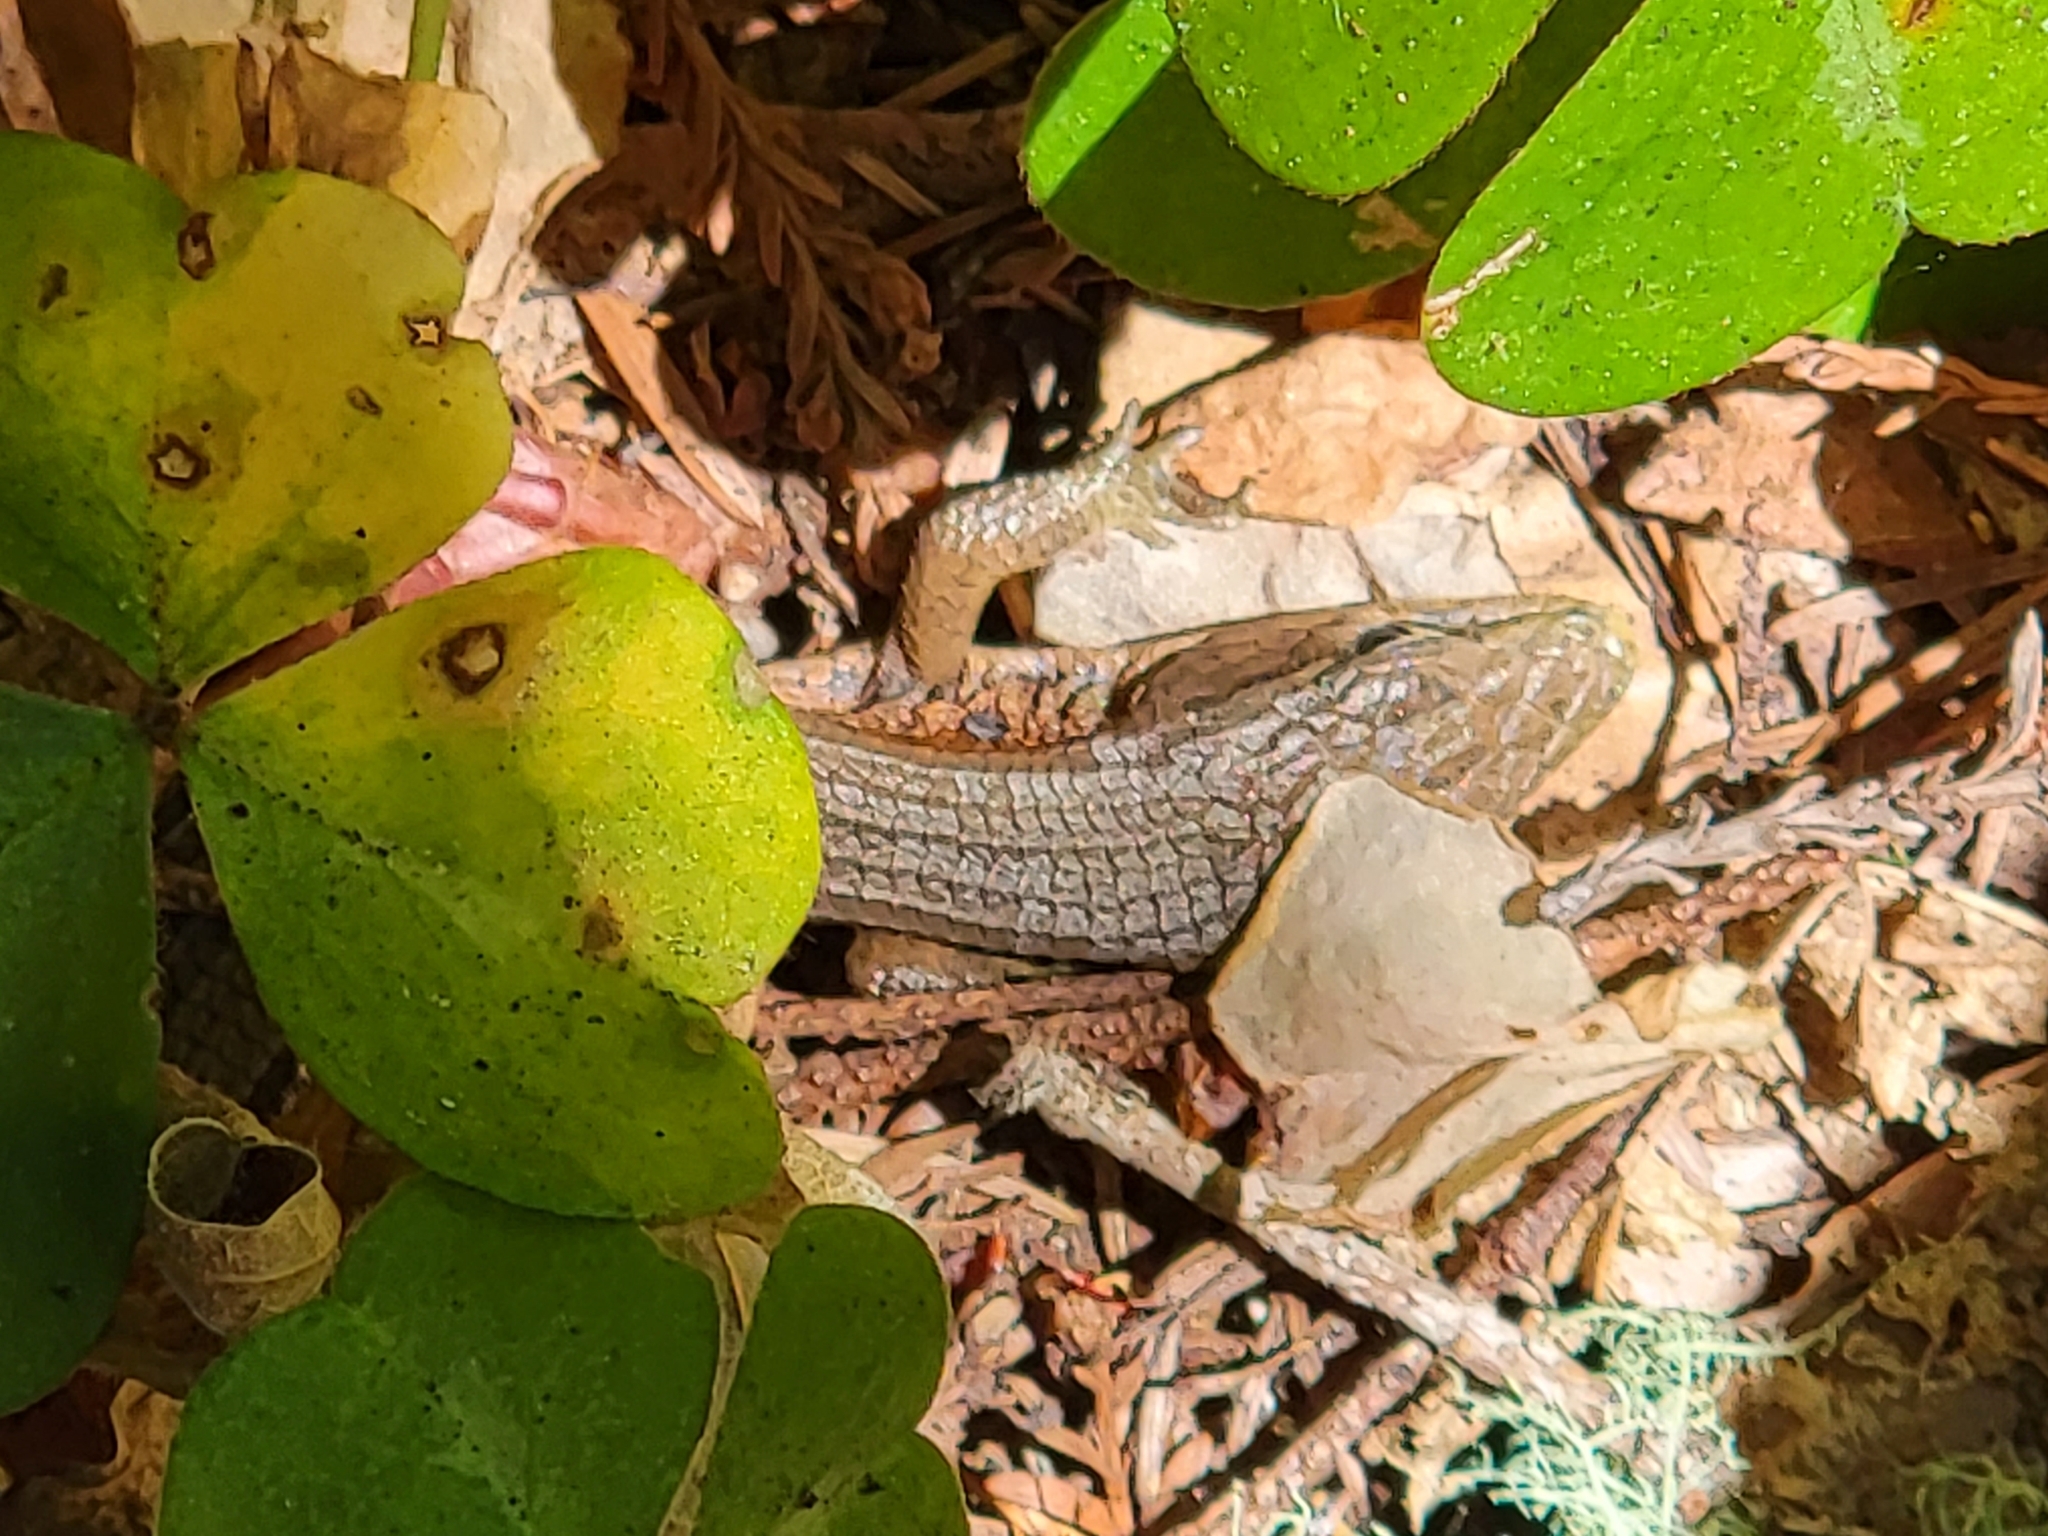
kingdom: Animalia
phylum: Chordata
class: Squamata
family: Anguidae
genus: Elgaria
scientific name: Elgaria multicarinata
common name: Southern alligator lizard
